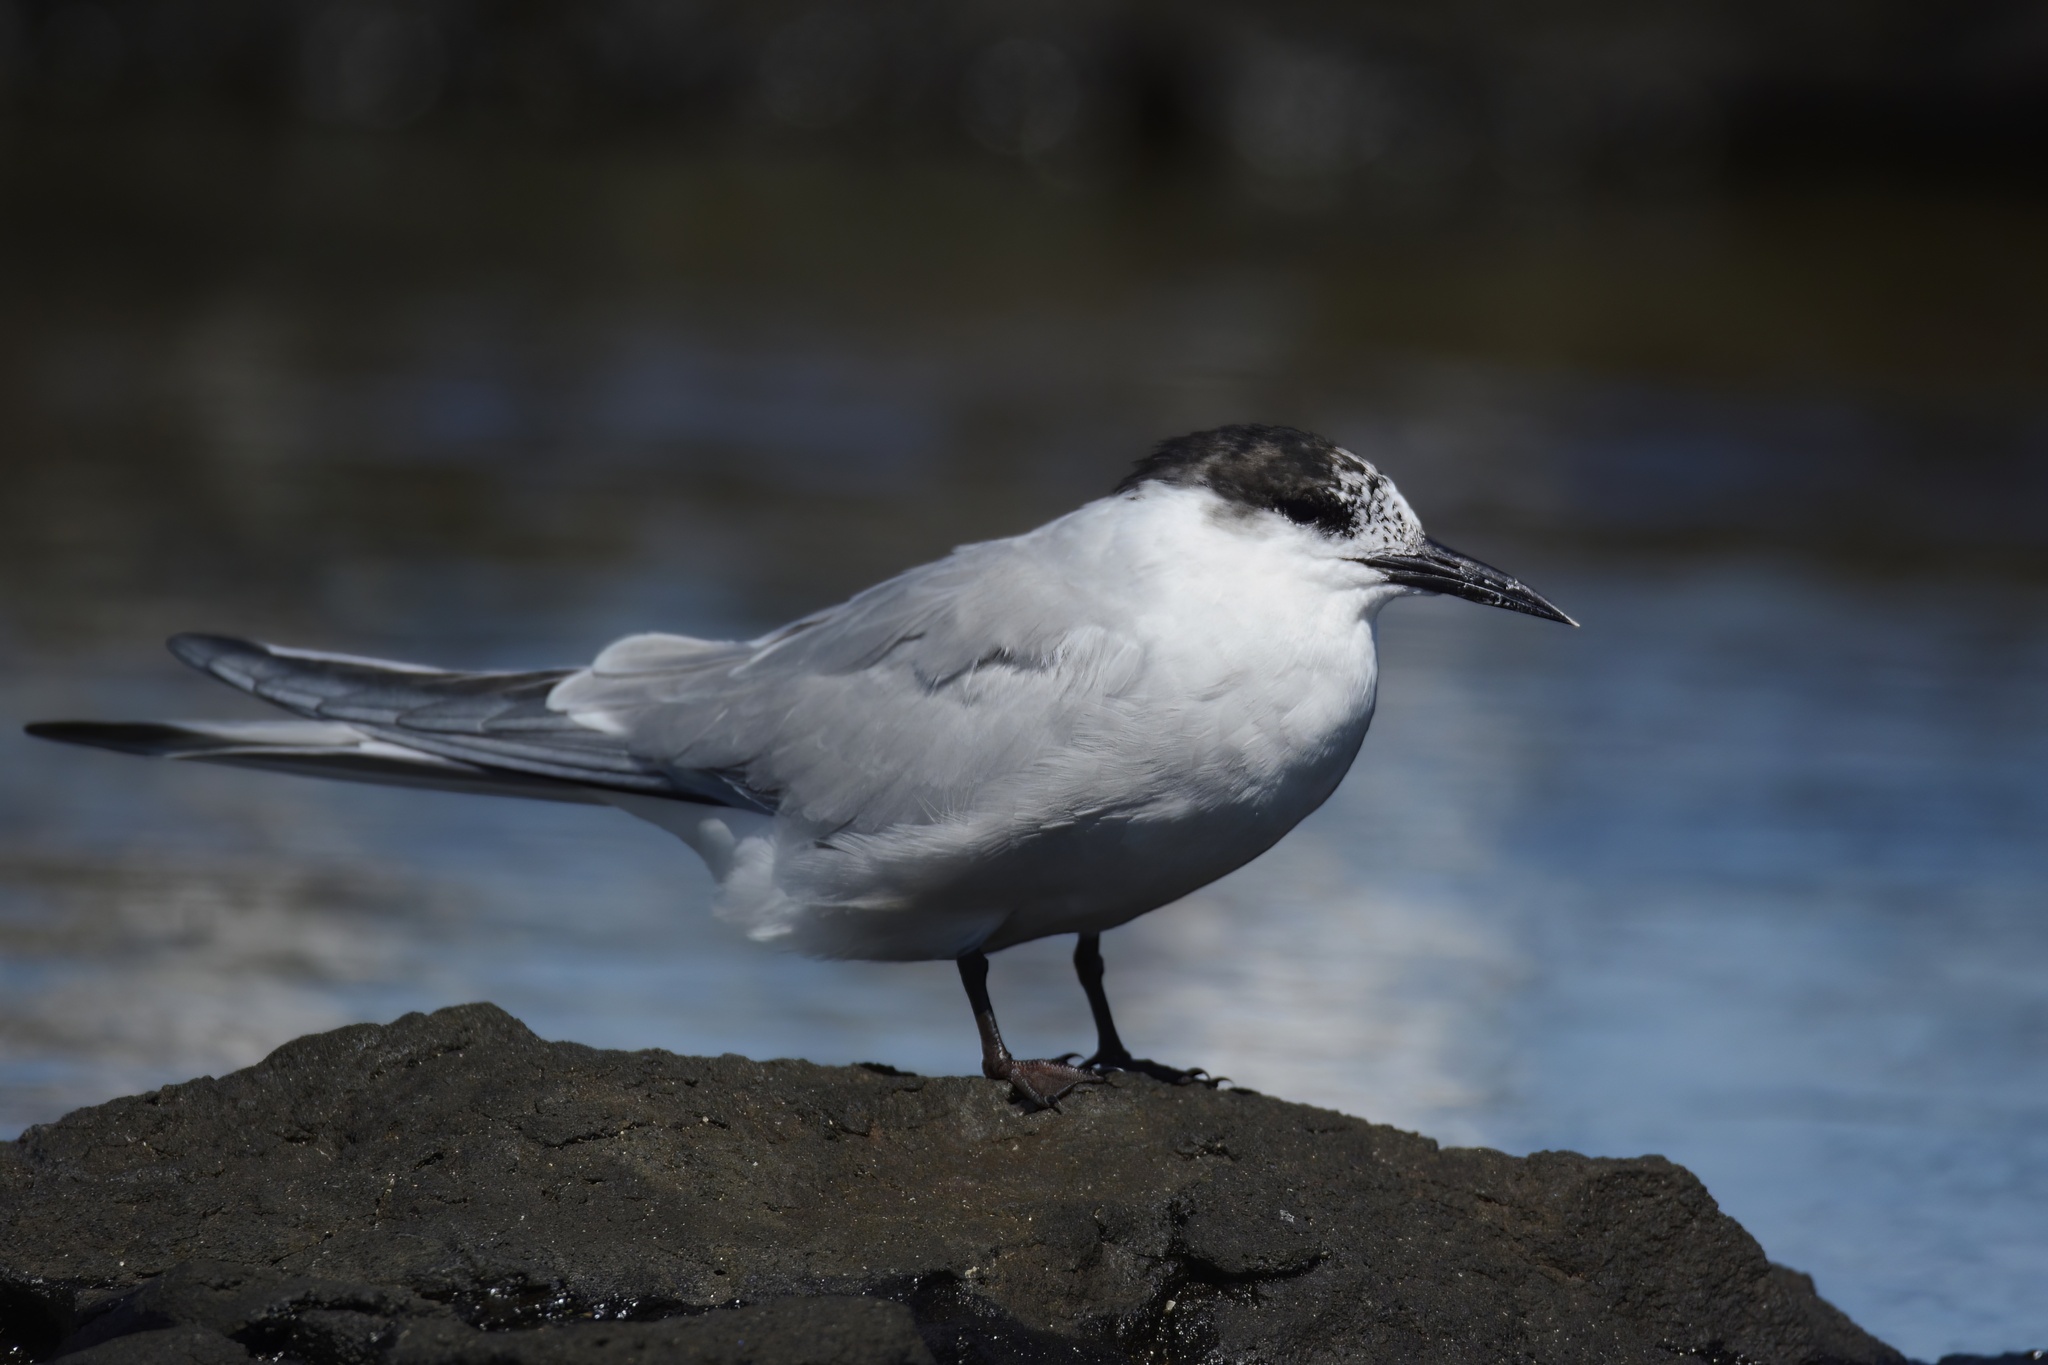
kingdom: Animalia
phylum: Chordata
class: Aves
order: Charadriiformes
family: Laridae
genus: Sterna
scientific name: Sterna hirundo
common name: Common tern
